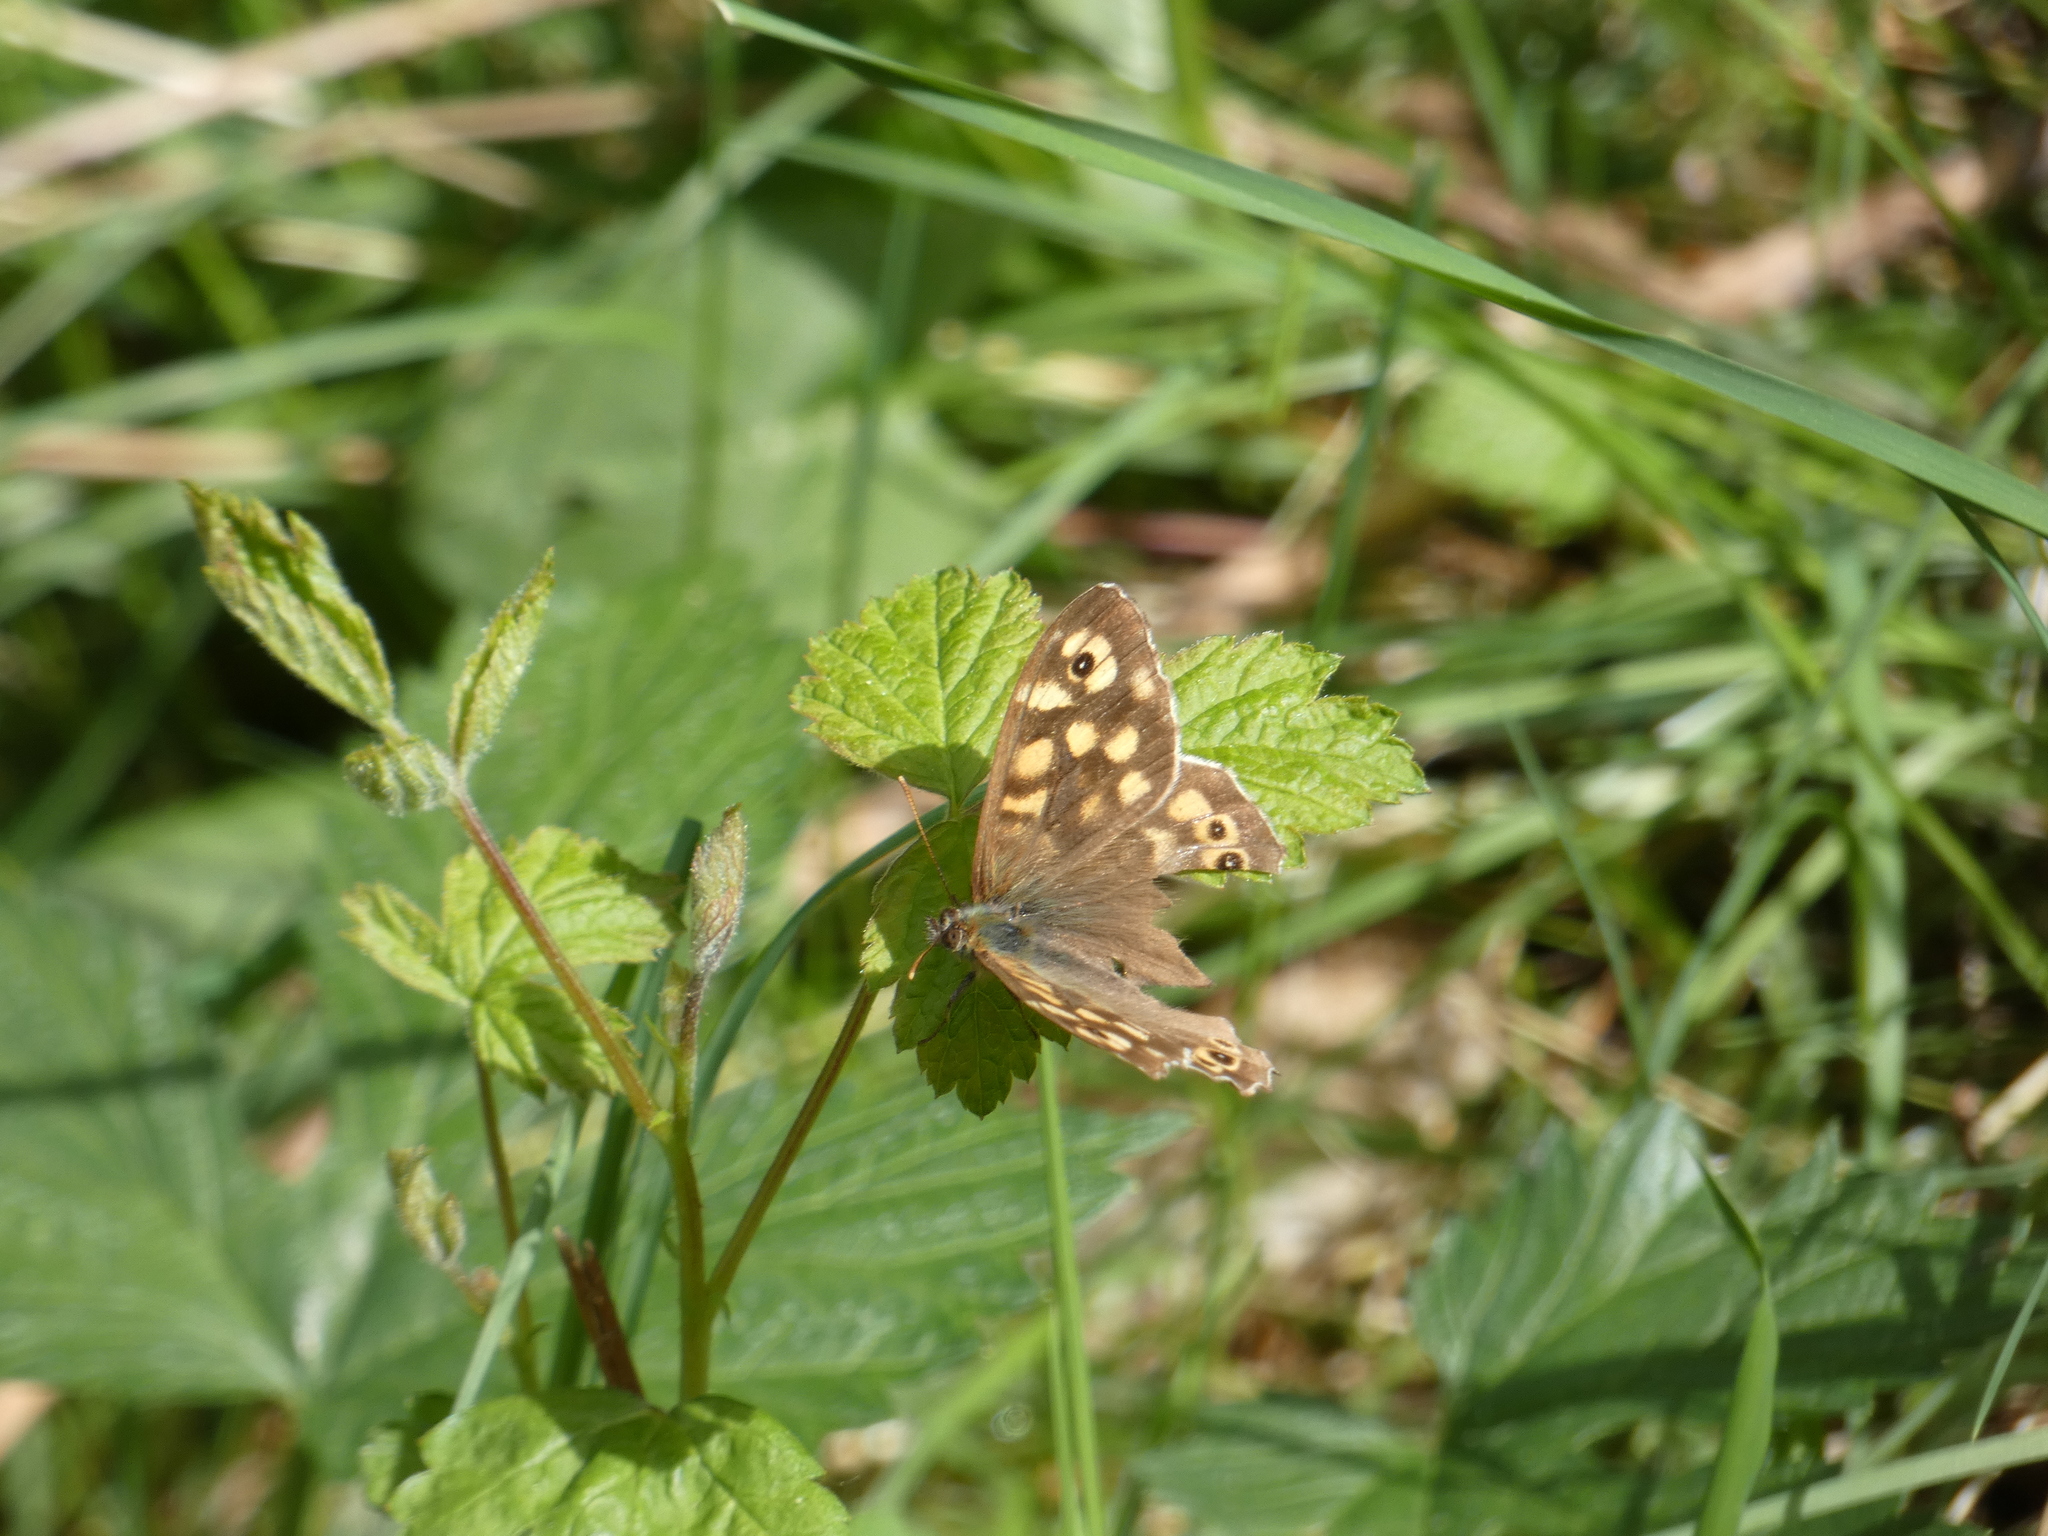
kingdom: Animalia
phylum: Arthropoda
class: Insecta
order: Lepidoptera
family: Nymphalidae
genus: Pararge
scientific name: Pararge aegeria
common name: Speckled wood
